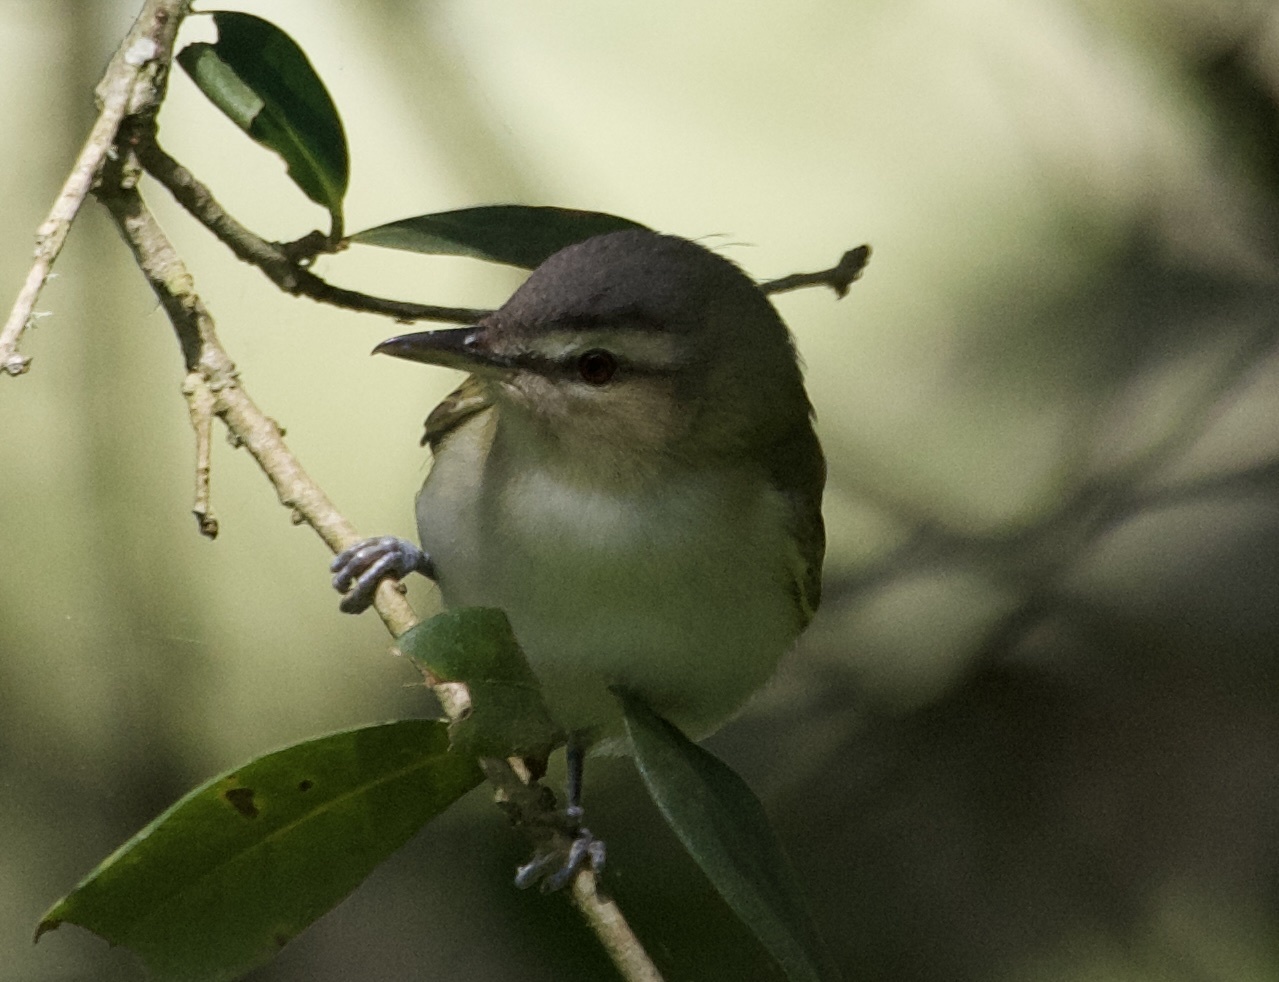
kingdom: Animalia
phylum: Chordata
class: Aves
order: Passeriformes
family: Vireonidae
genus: Vireo
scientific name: Vireo olivaceus
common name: Red-eyed vireo
